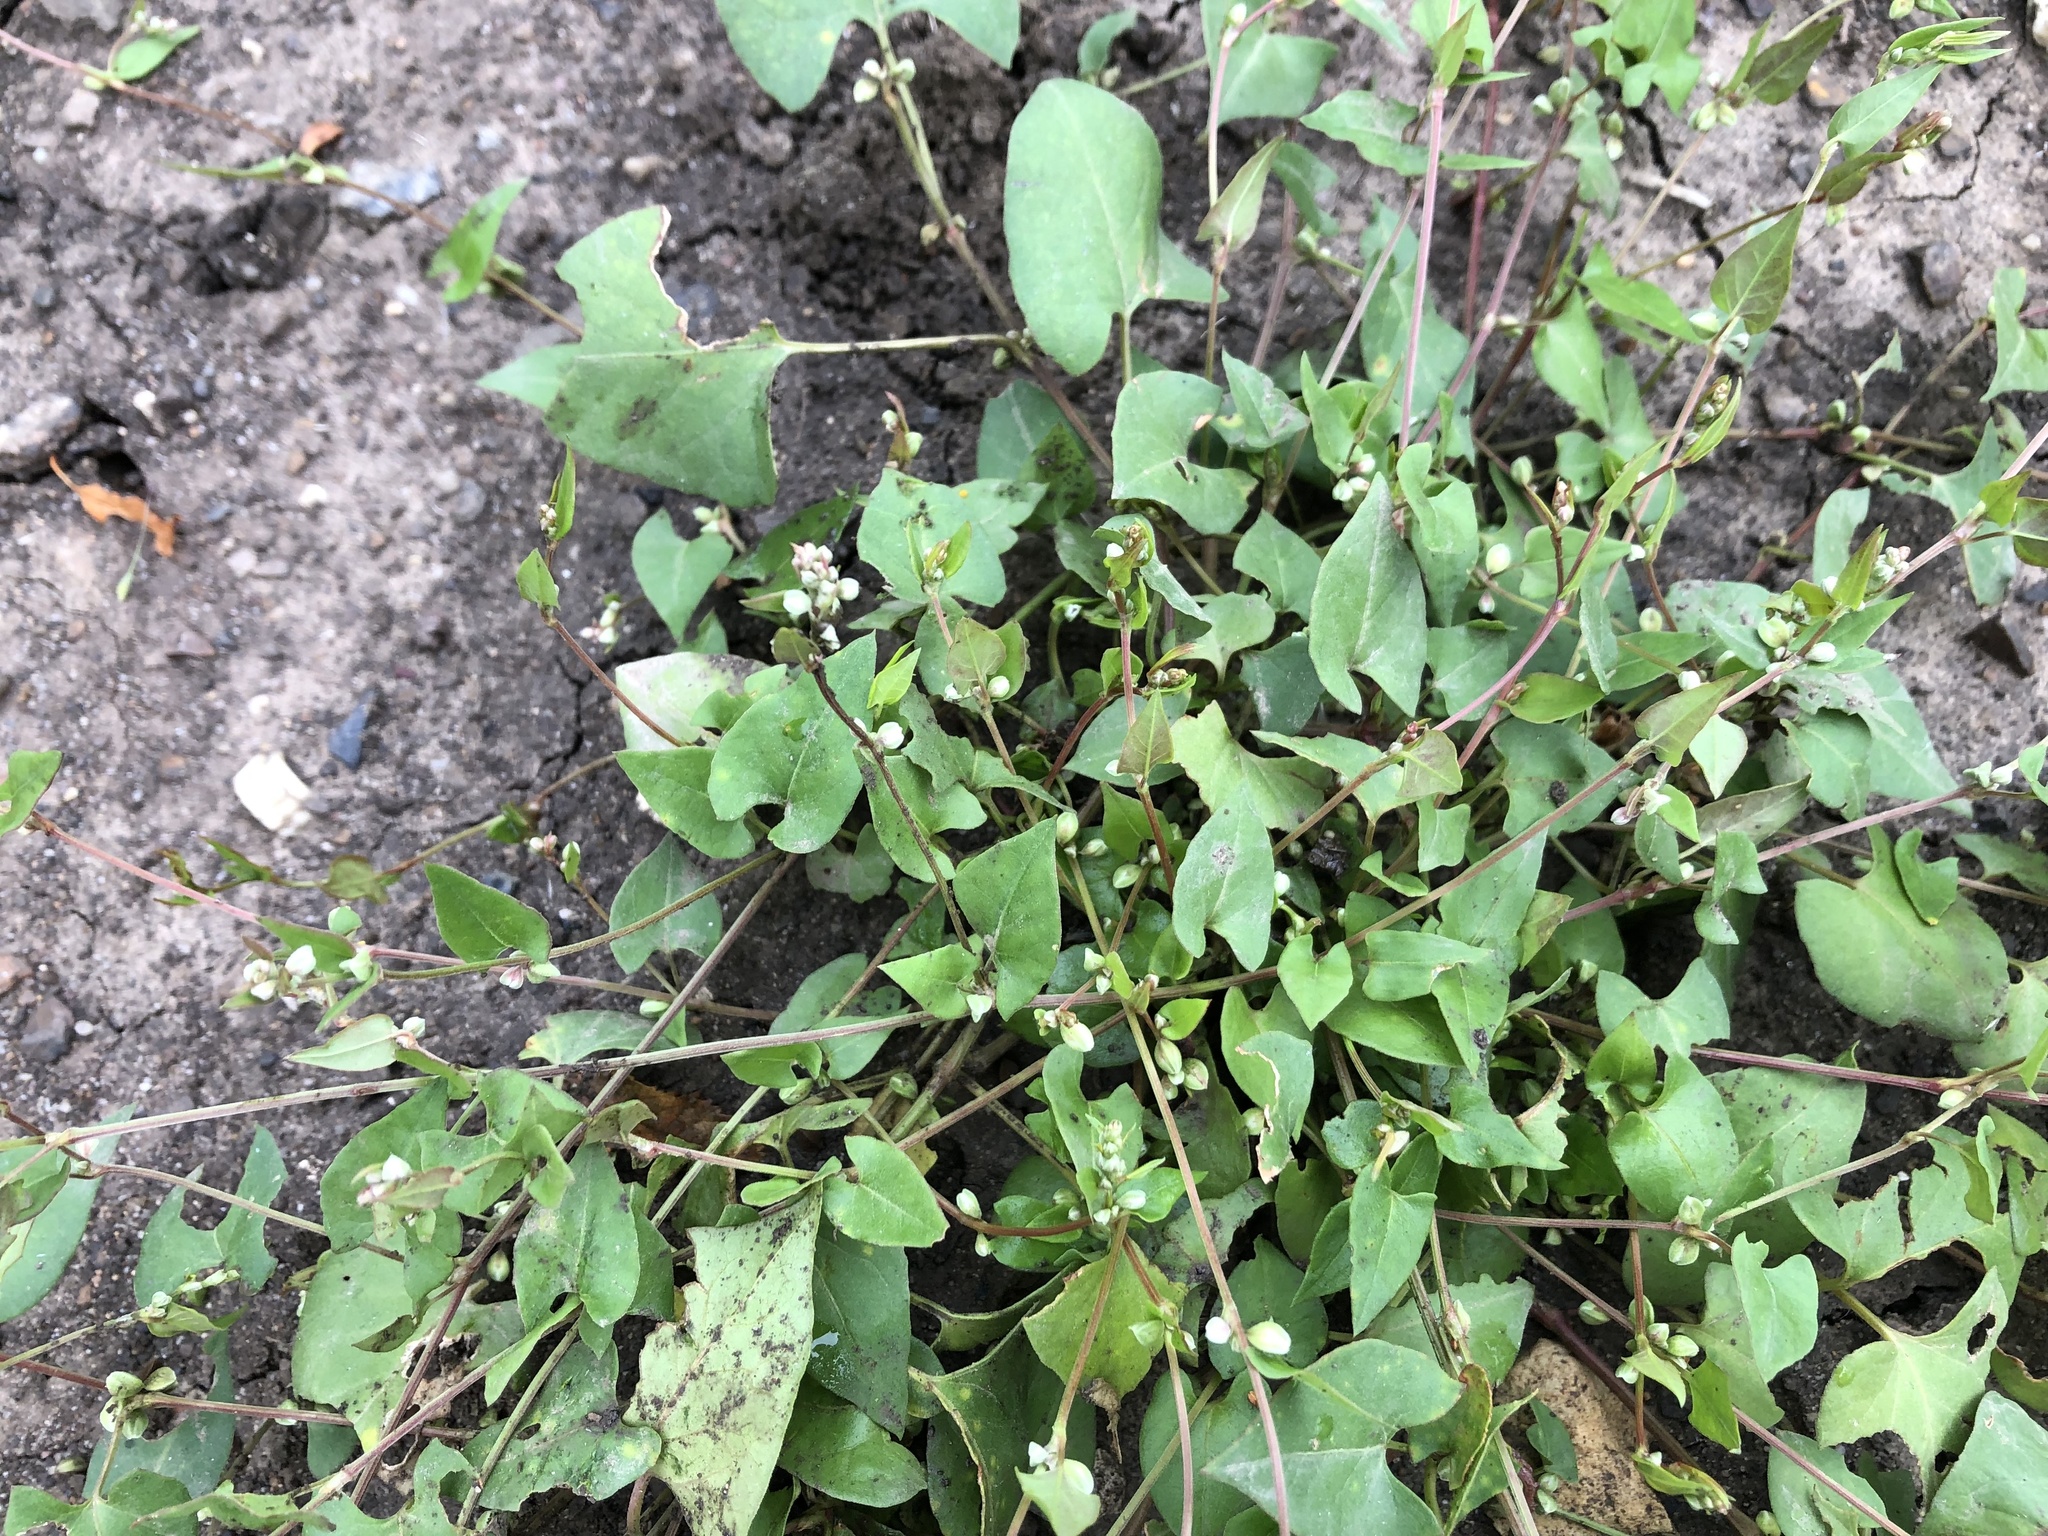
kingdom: Plantae
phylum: Tracheophyta
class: Magnoliopsida
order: Caryophyllales
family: Polygonaceae
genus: Fallopia
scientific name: Fallopia convolvulus
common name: Black bindweed
